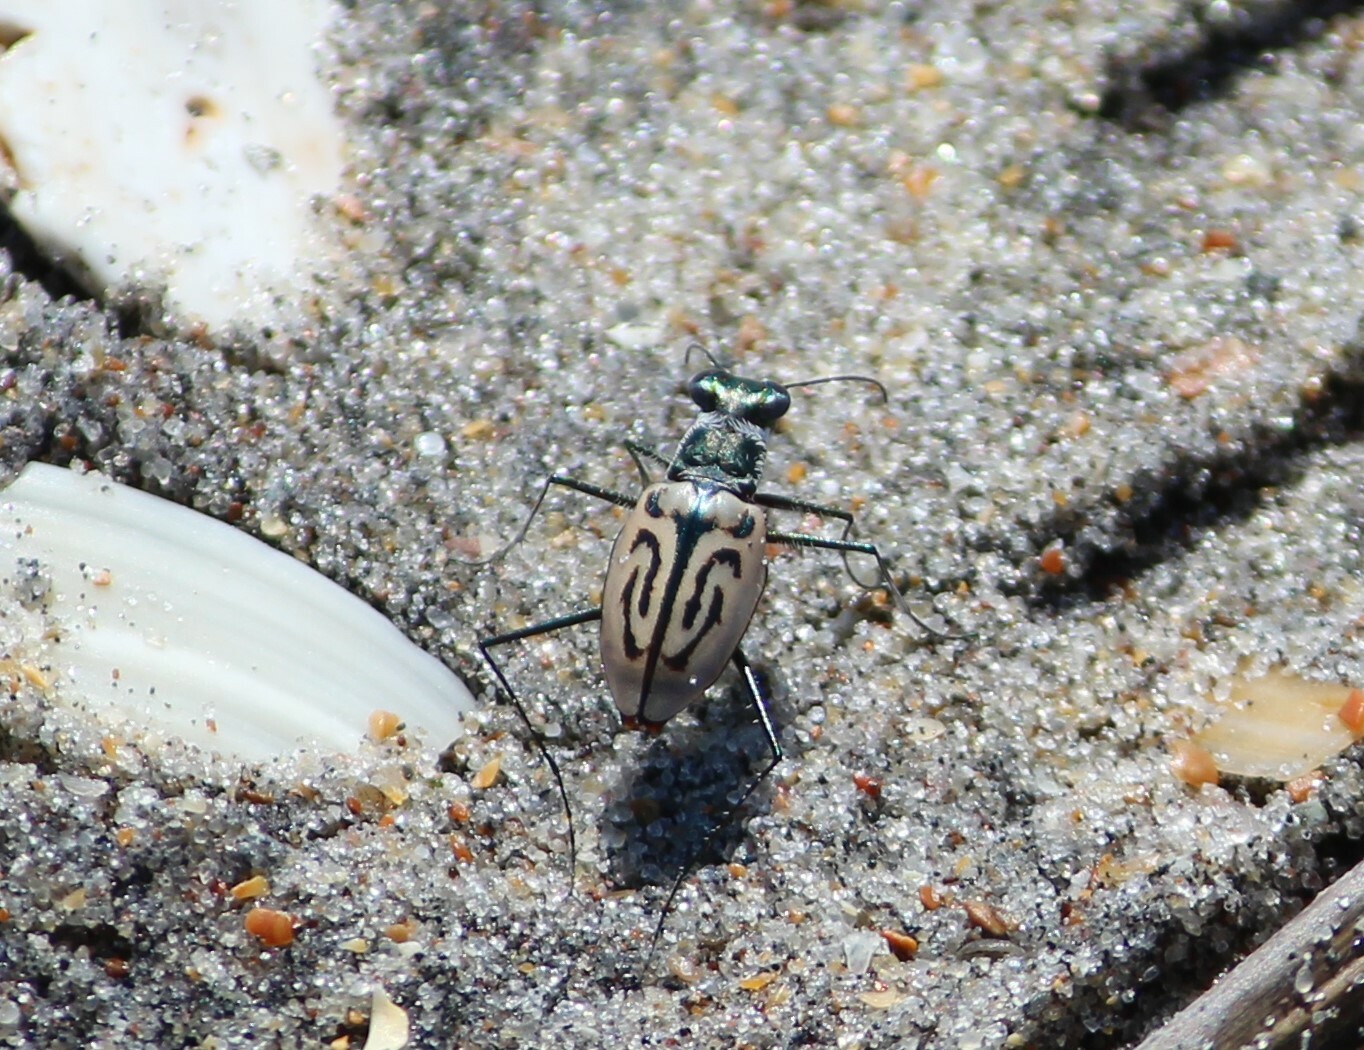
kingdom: Animalia
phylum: Arthropoda
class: Insecta
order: Coleoptera
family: Carabidae
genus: Habroscelimorpha
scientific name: Habroscelimorpha dorsalis
